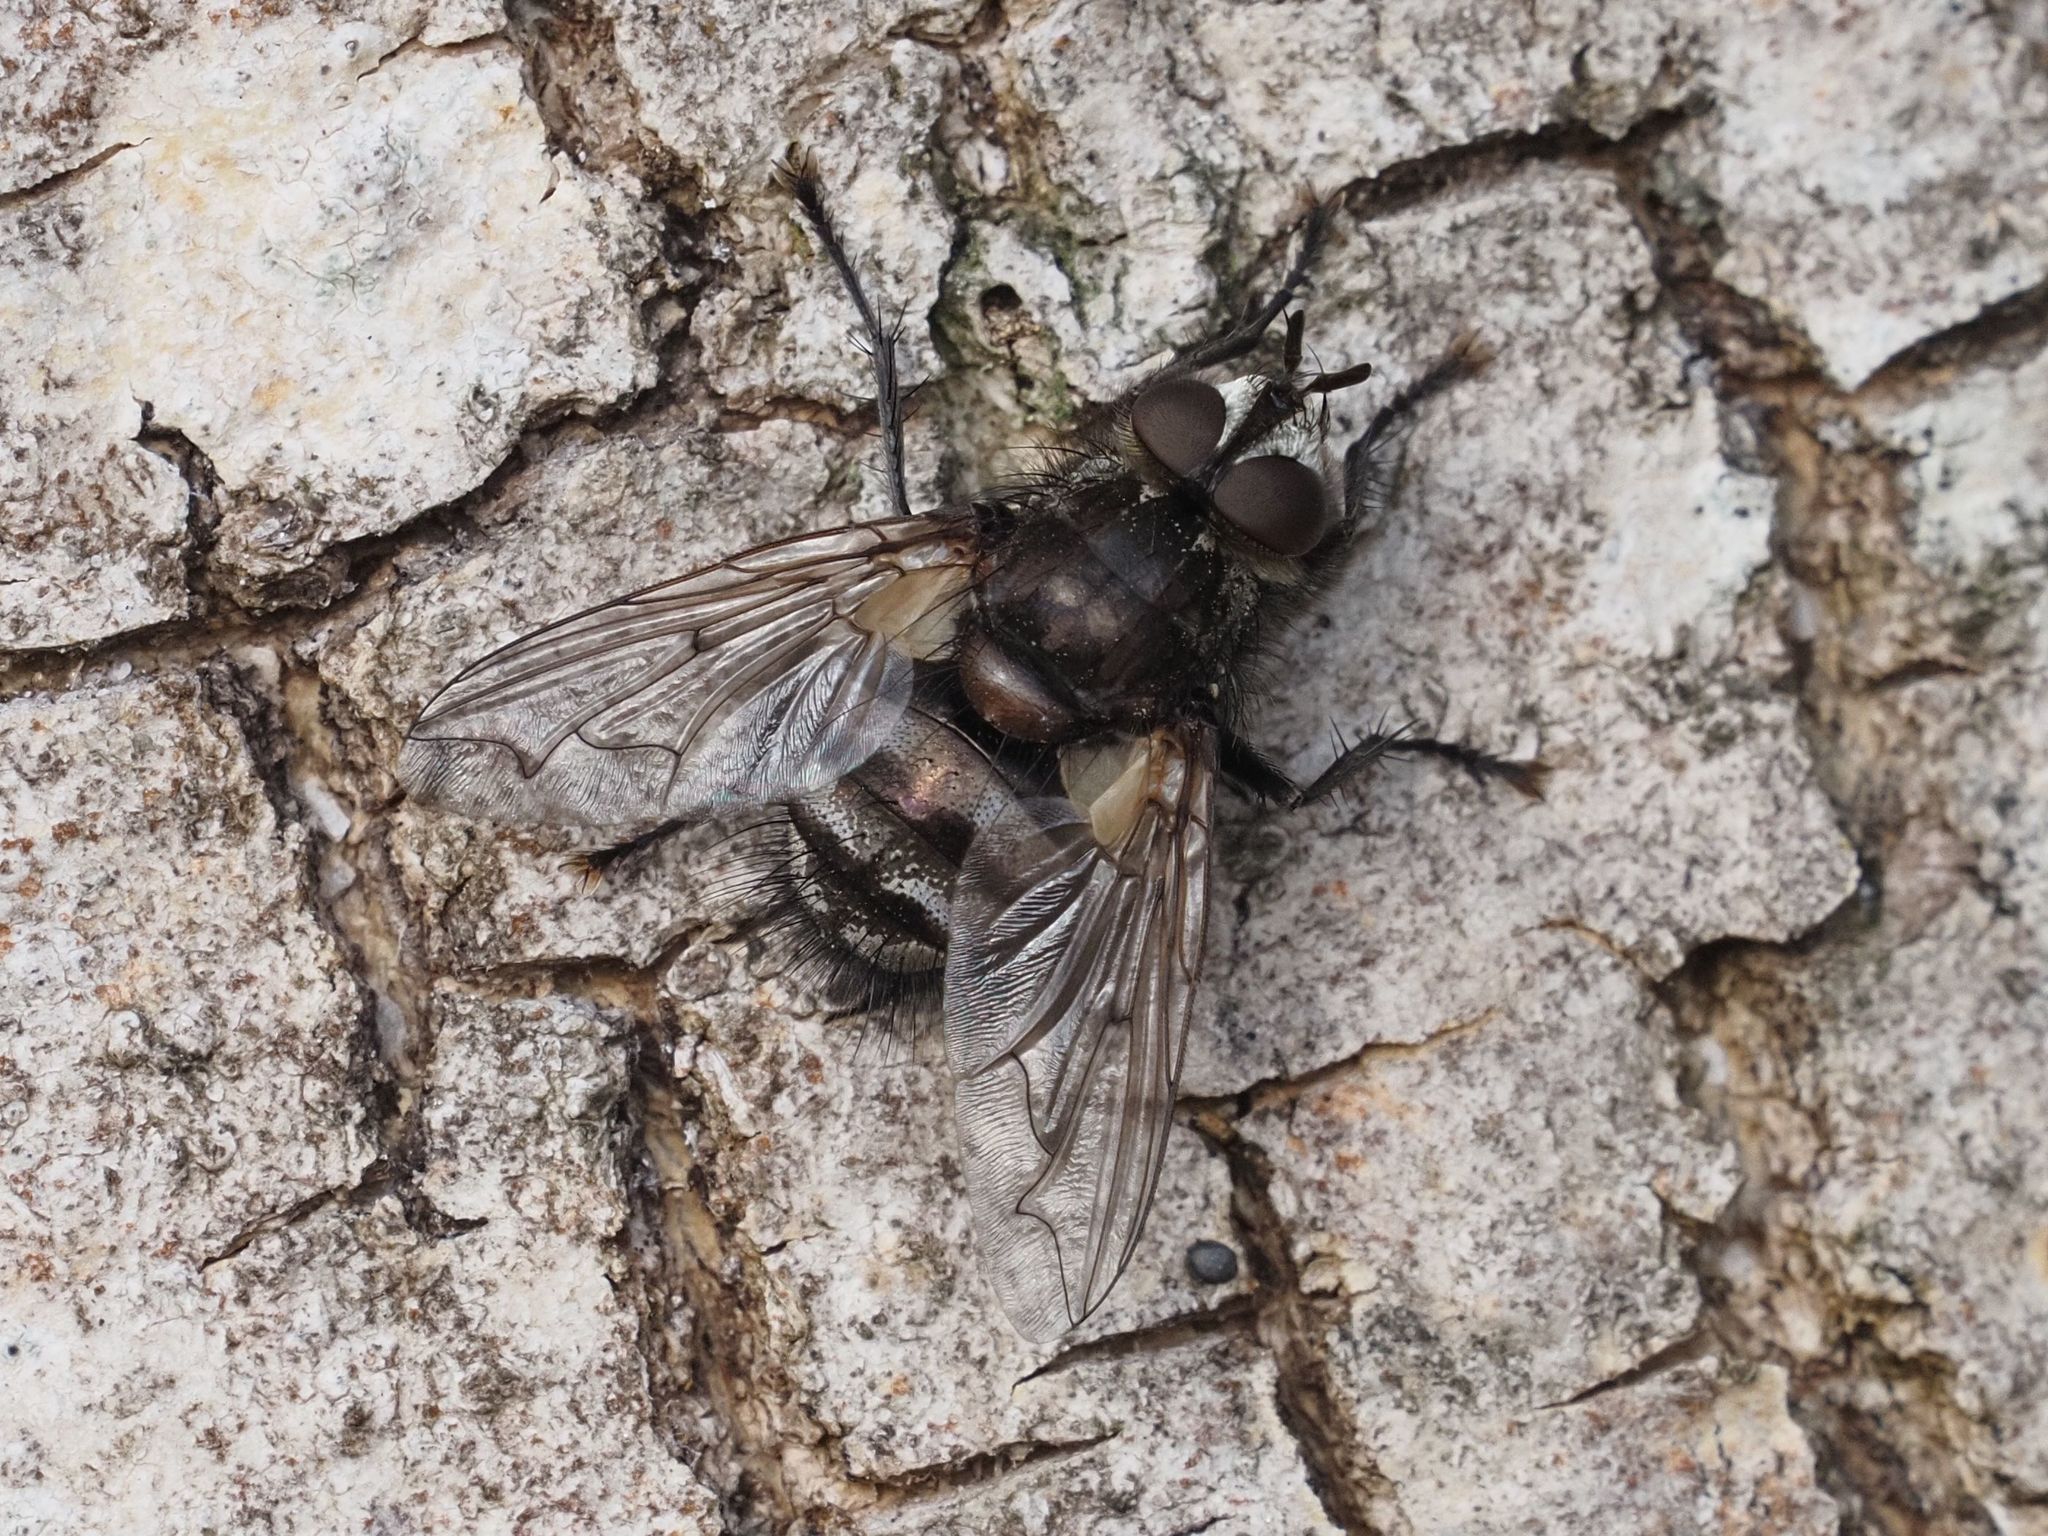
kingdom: Animalia
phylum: Arthropoda
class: Insecta
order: Diptera
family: Tachinidae
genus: Panzeria
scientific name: Panzeria puparum
